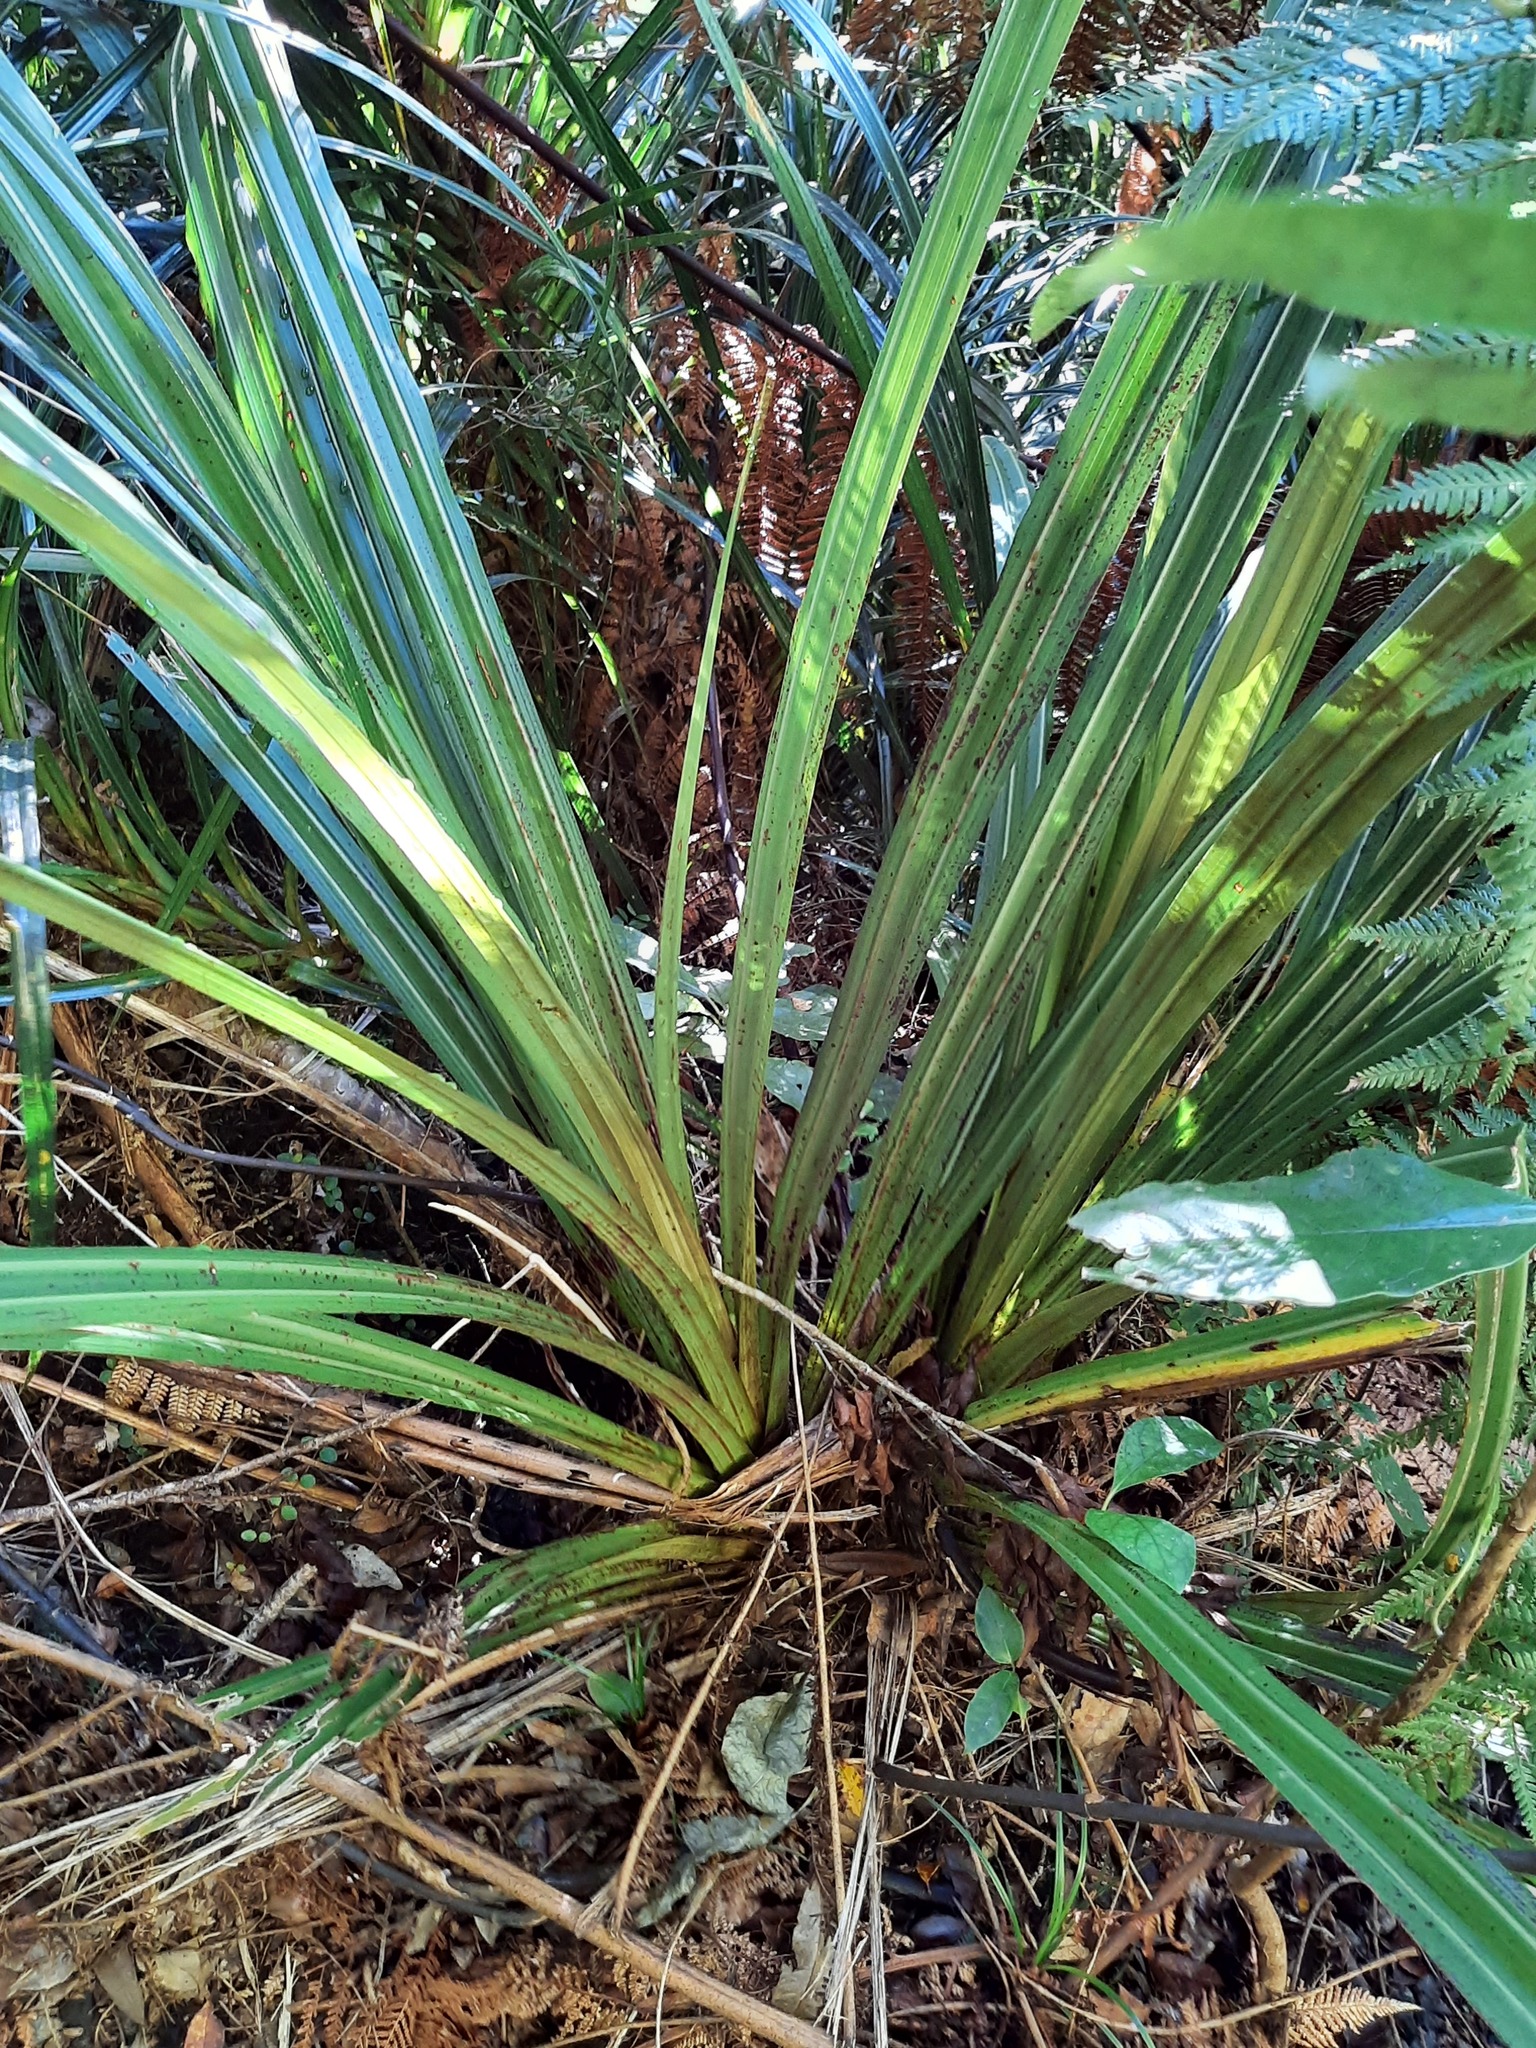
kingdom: Plantae
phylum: Tracheophyta
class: Liliopsida
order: Asparagales
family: Asteliaceae
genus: Astelia
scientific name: Astelia fragrans
